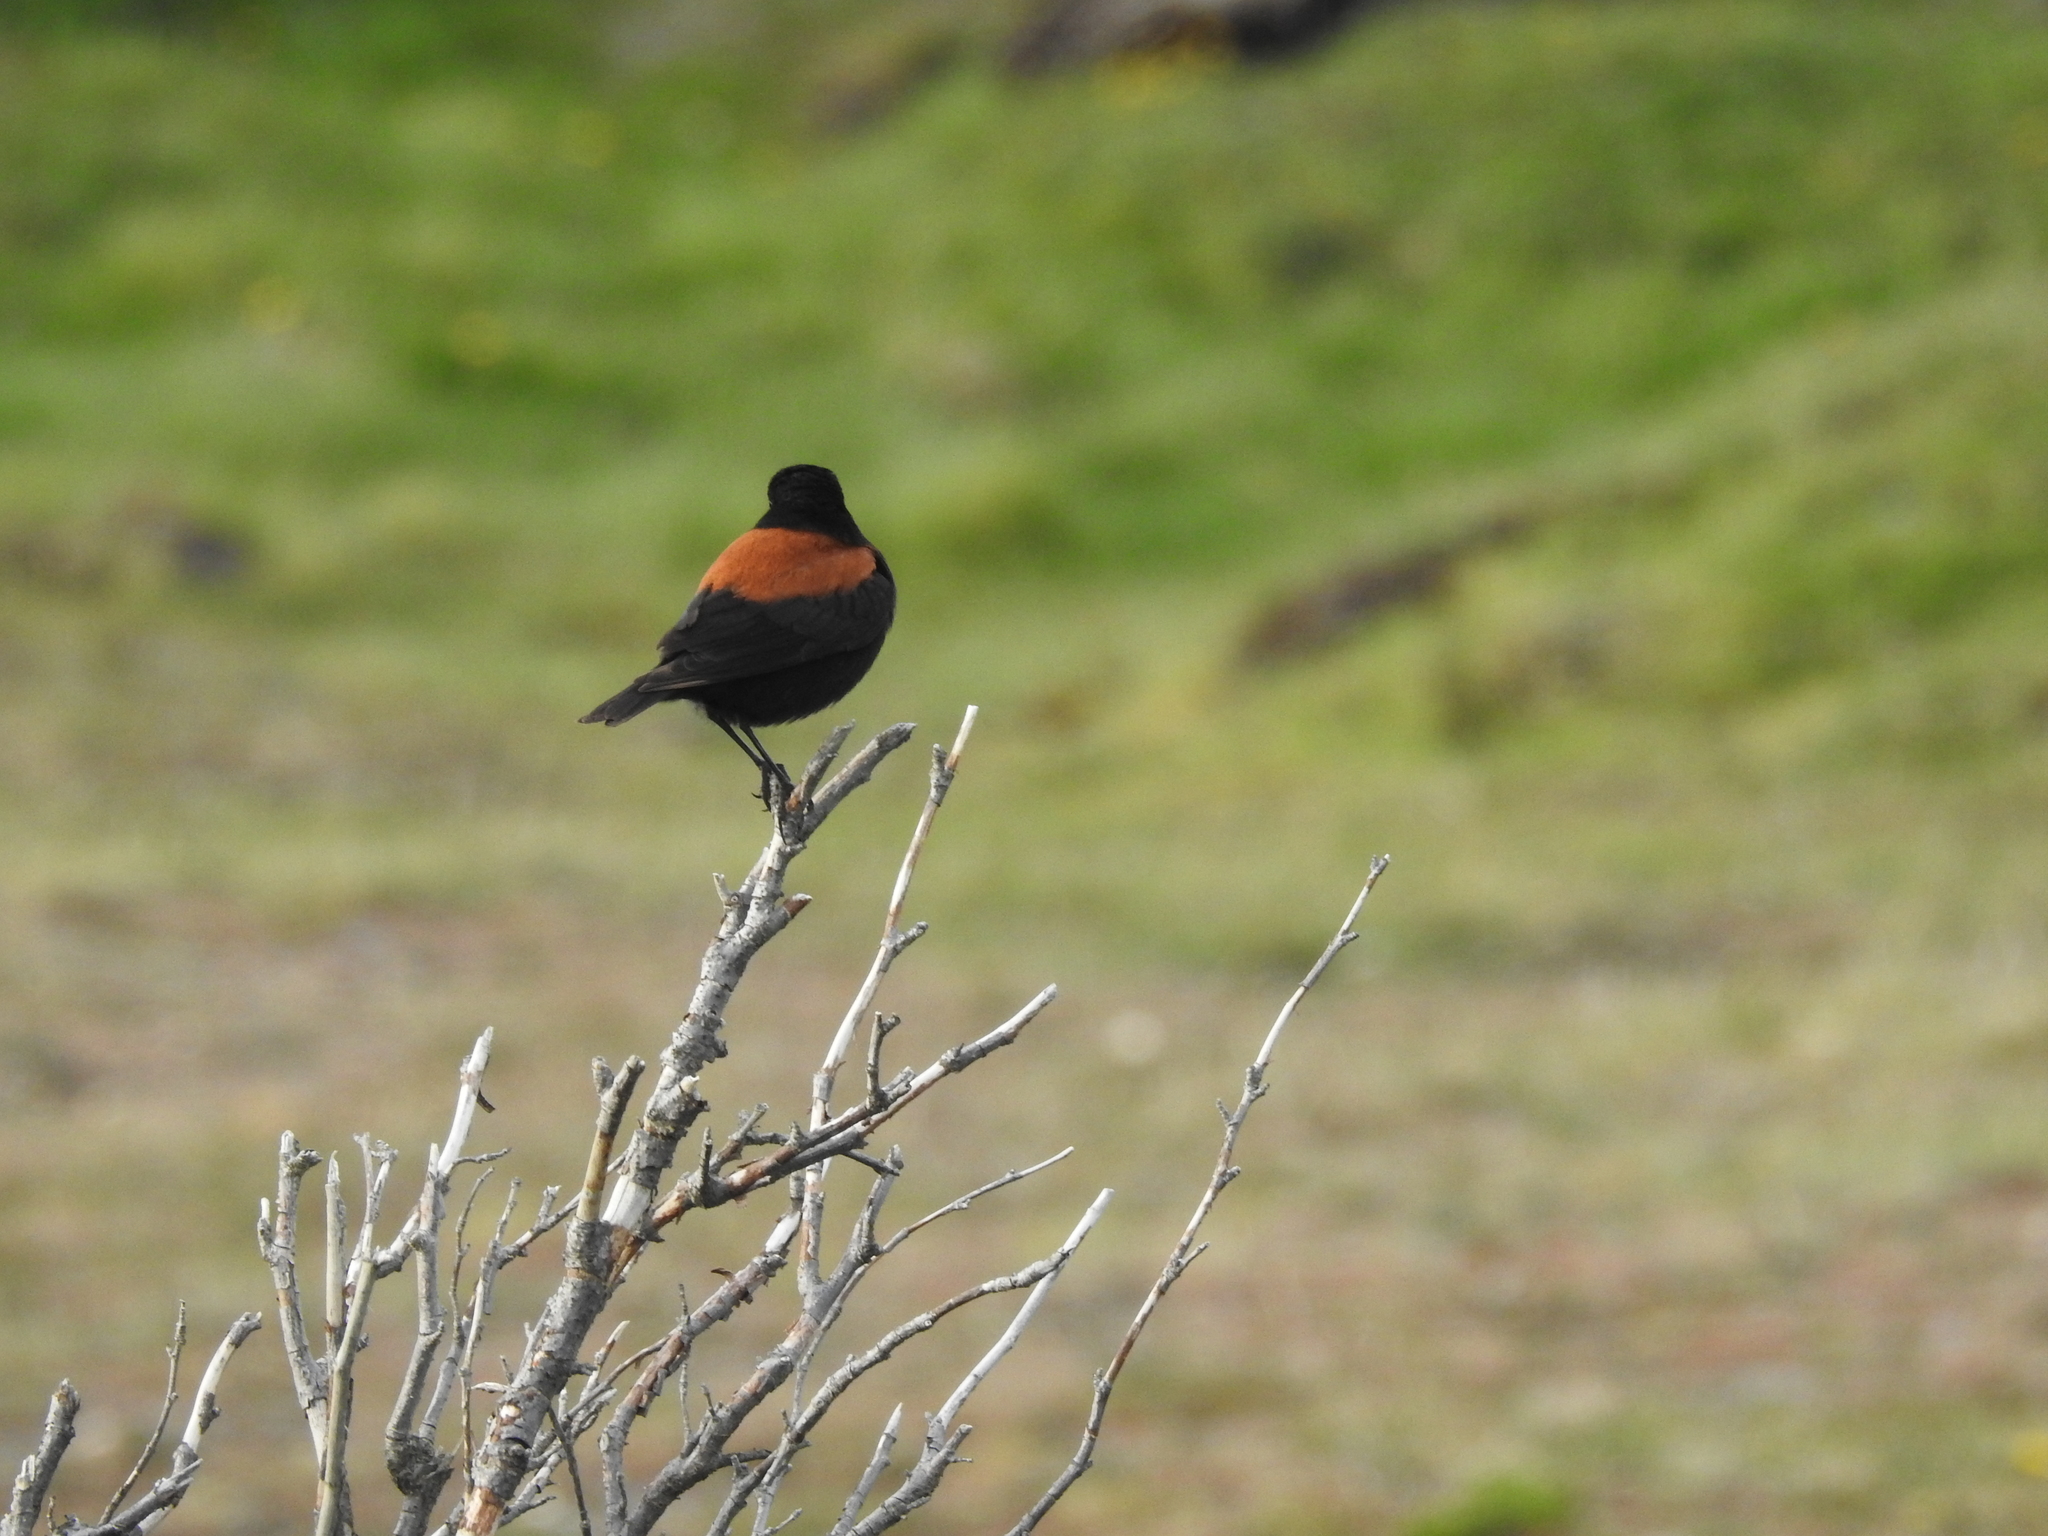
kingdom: Animalia
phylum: Chordata
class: Aves
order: Passeriformes
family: Tyrannidae
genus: Lessonia
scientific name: Lessonia rufa
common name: Austral negrito
